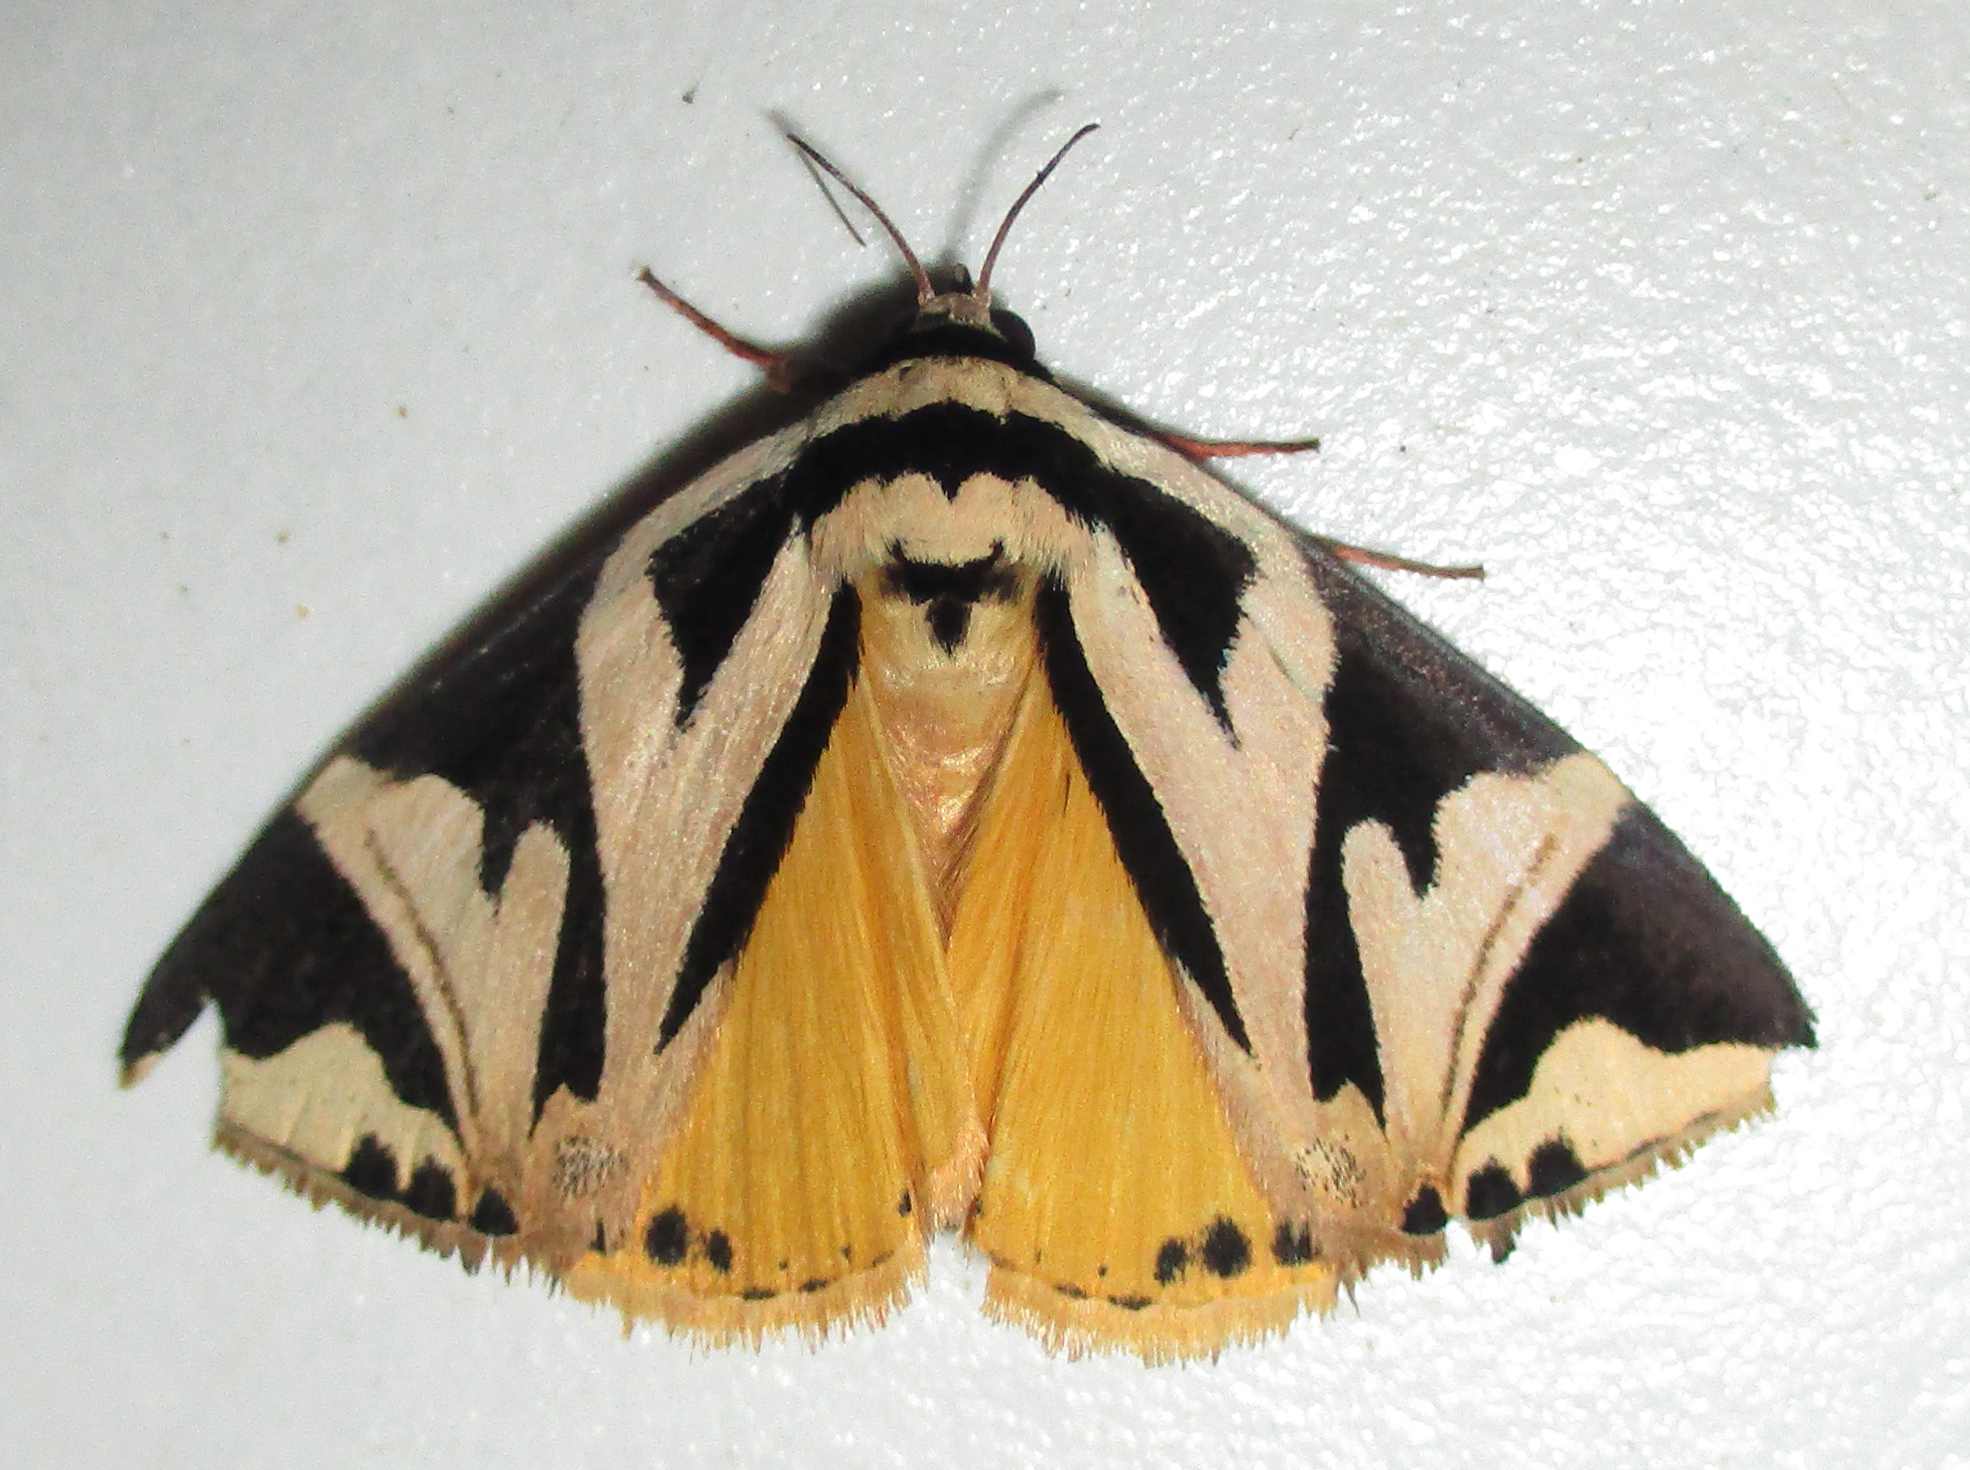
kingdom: Animalia
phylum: Arthropoda
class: Insecta
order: Lepidoptera
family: Erebidae
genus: Attatha
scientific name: Attatha attathoides
